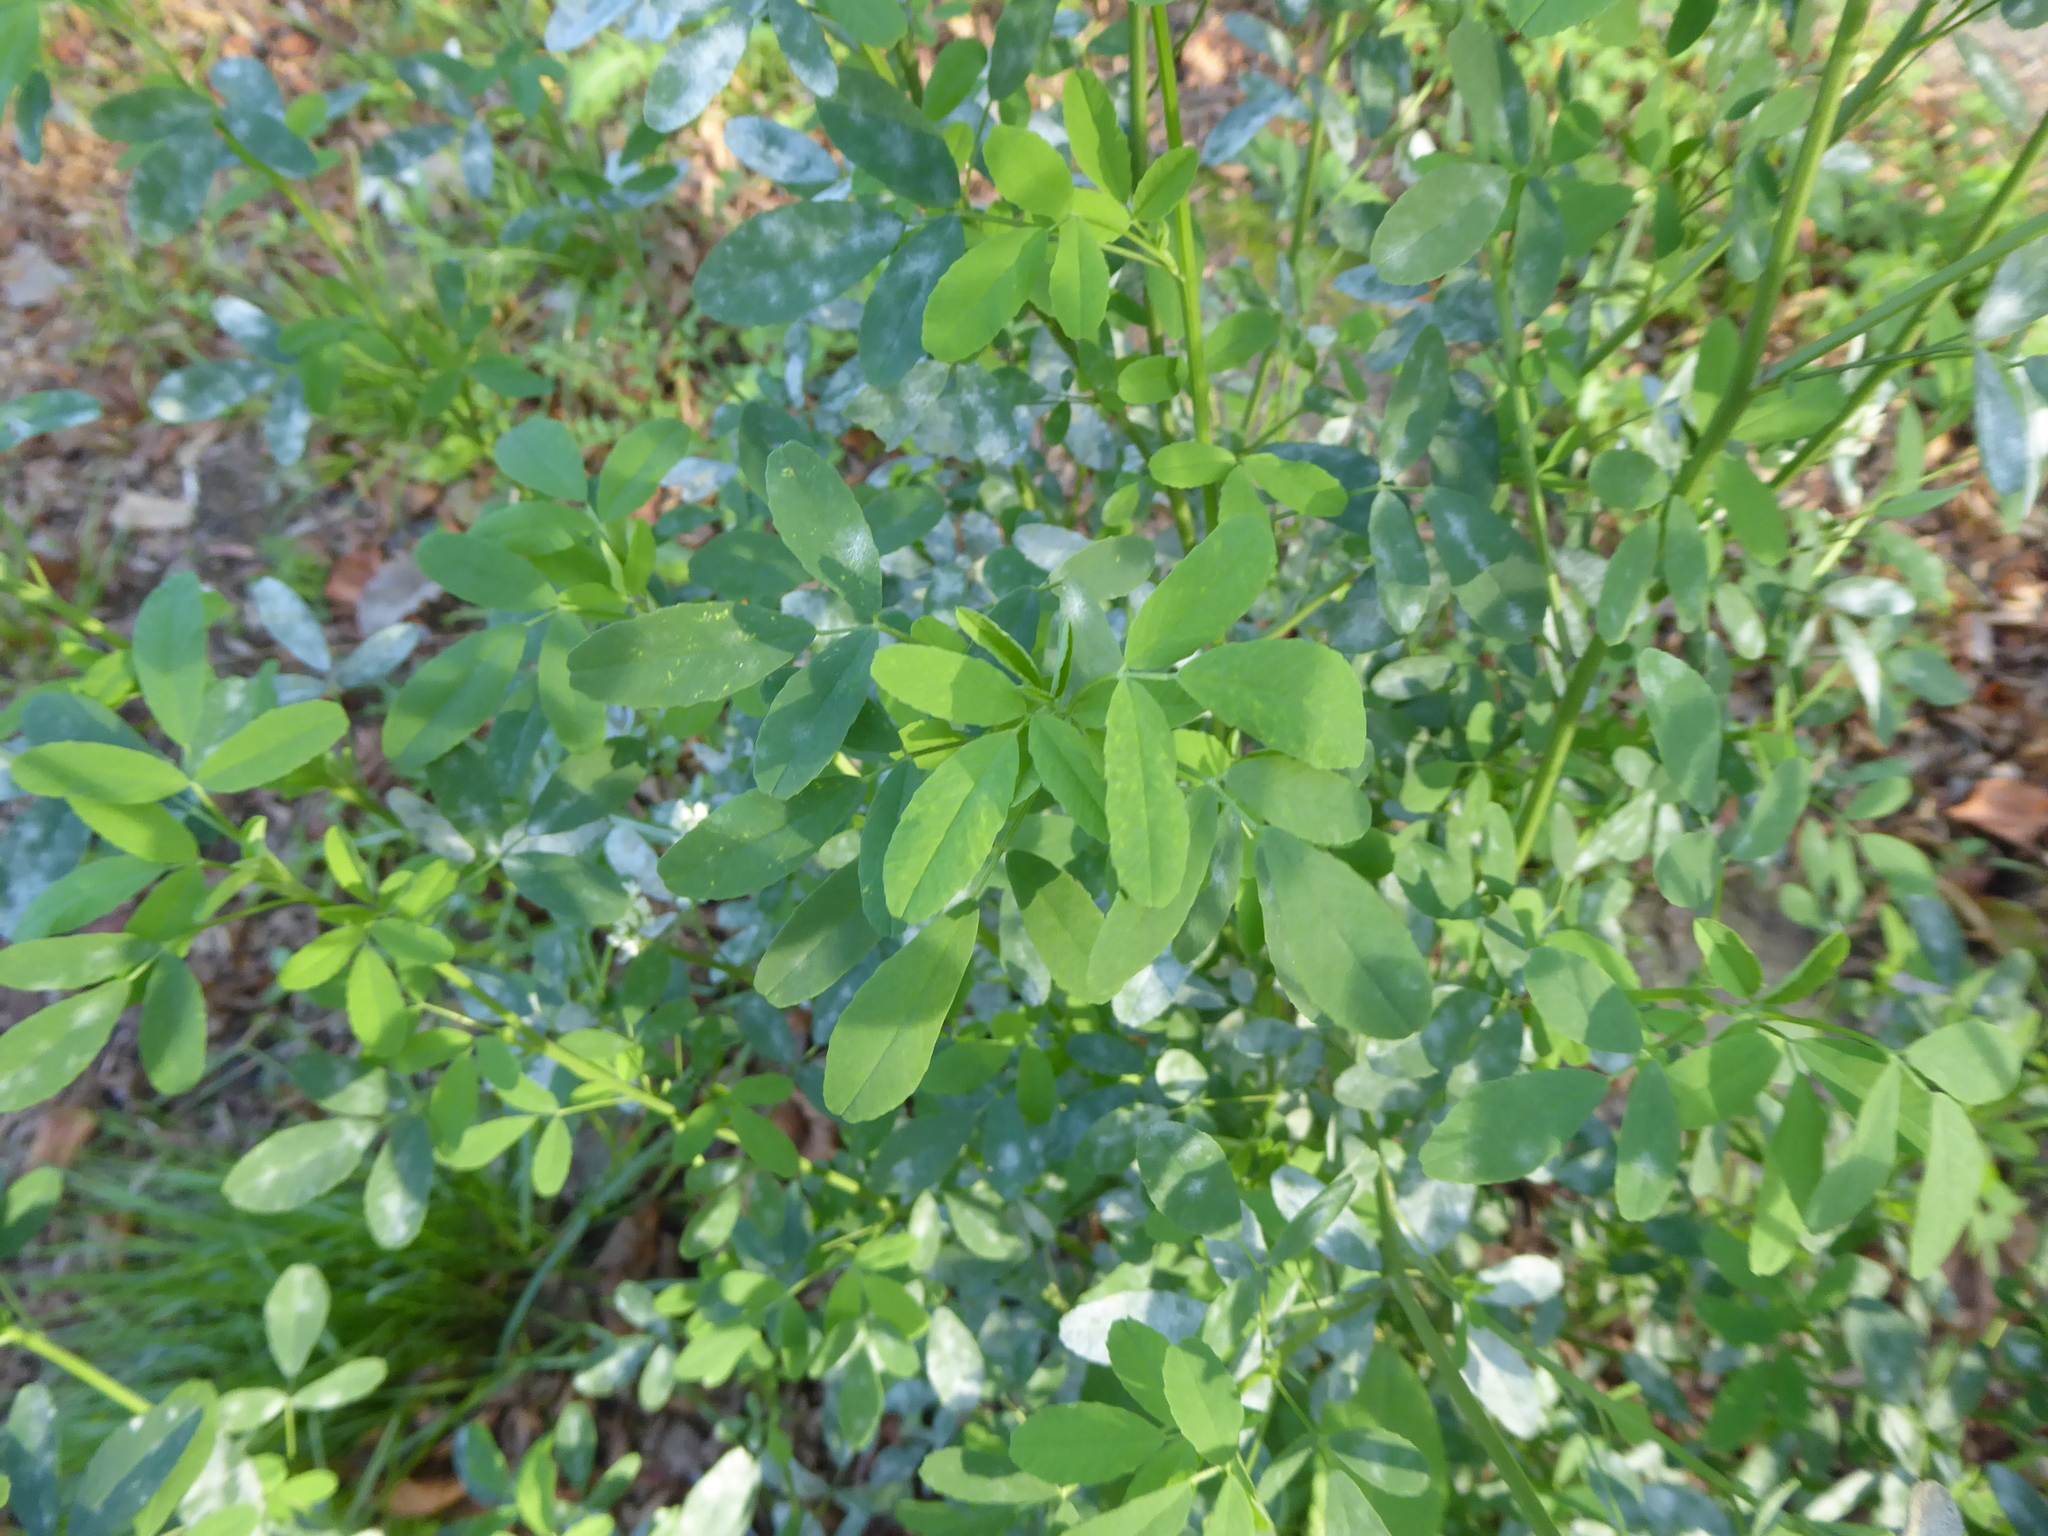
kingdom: Plantae
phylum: Tracheophyta
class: Magnoliopsida
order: Fabales
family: Fabaceae
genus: Melilotus
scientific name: Melilotus albus
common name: White melilot
